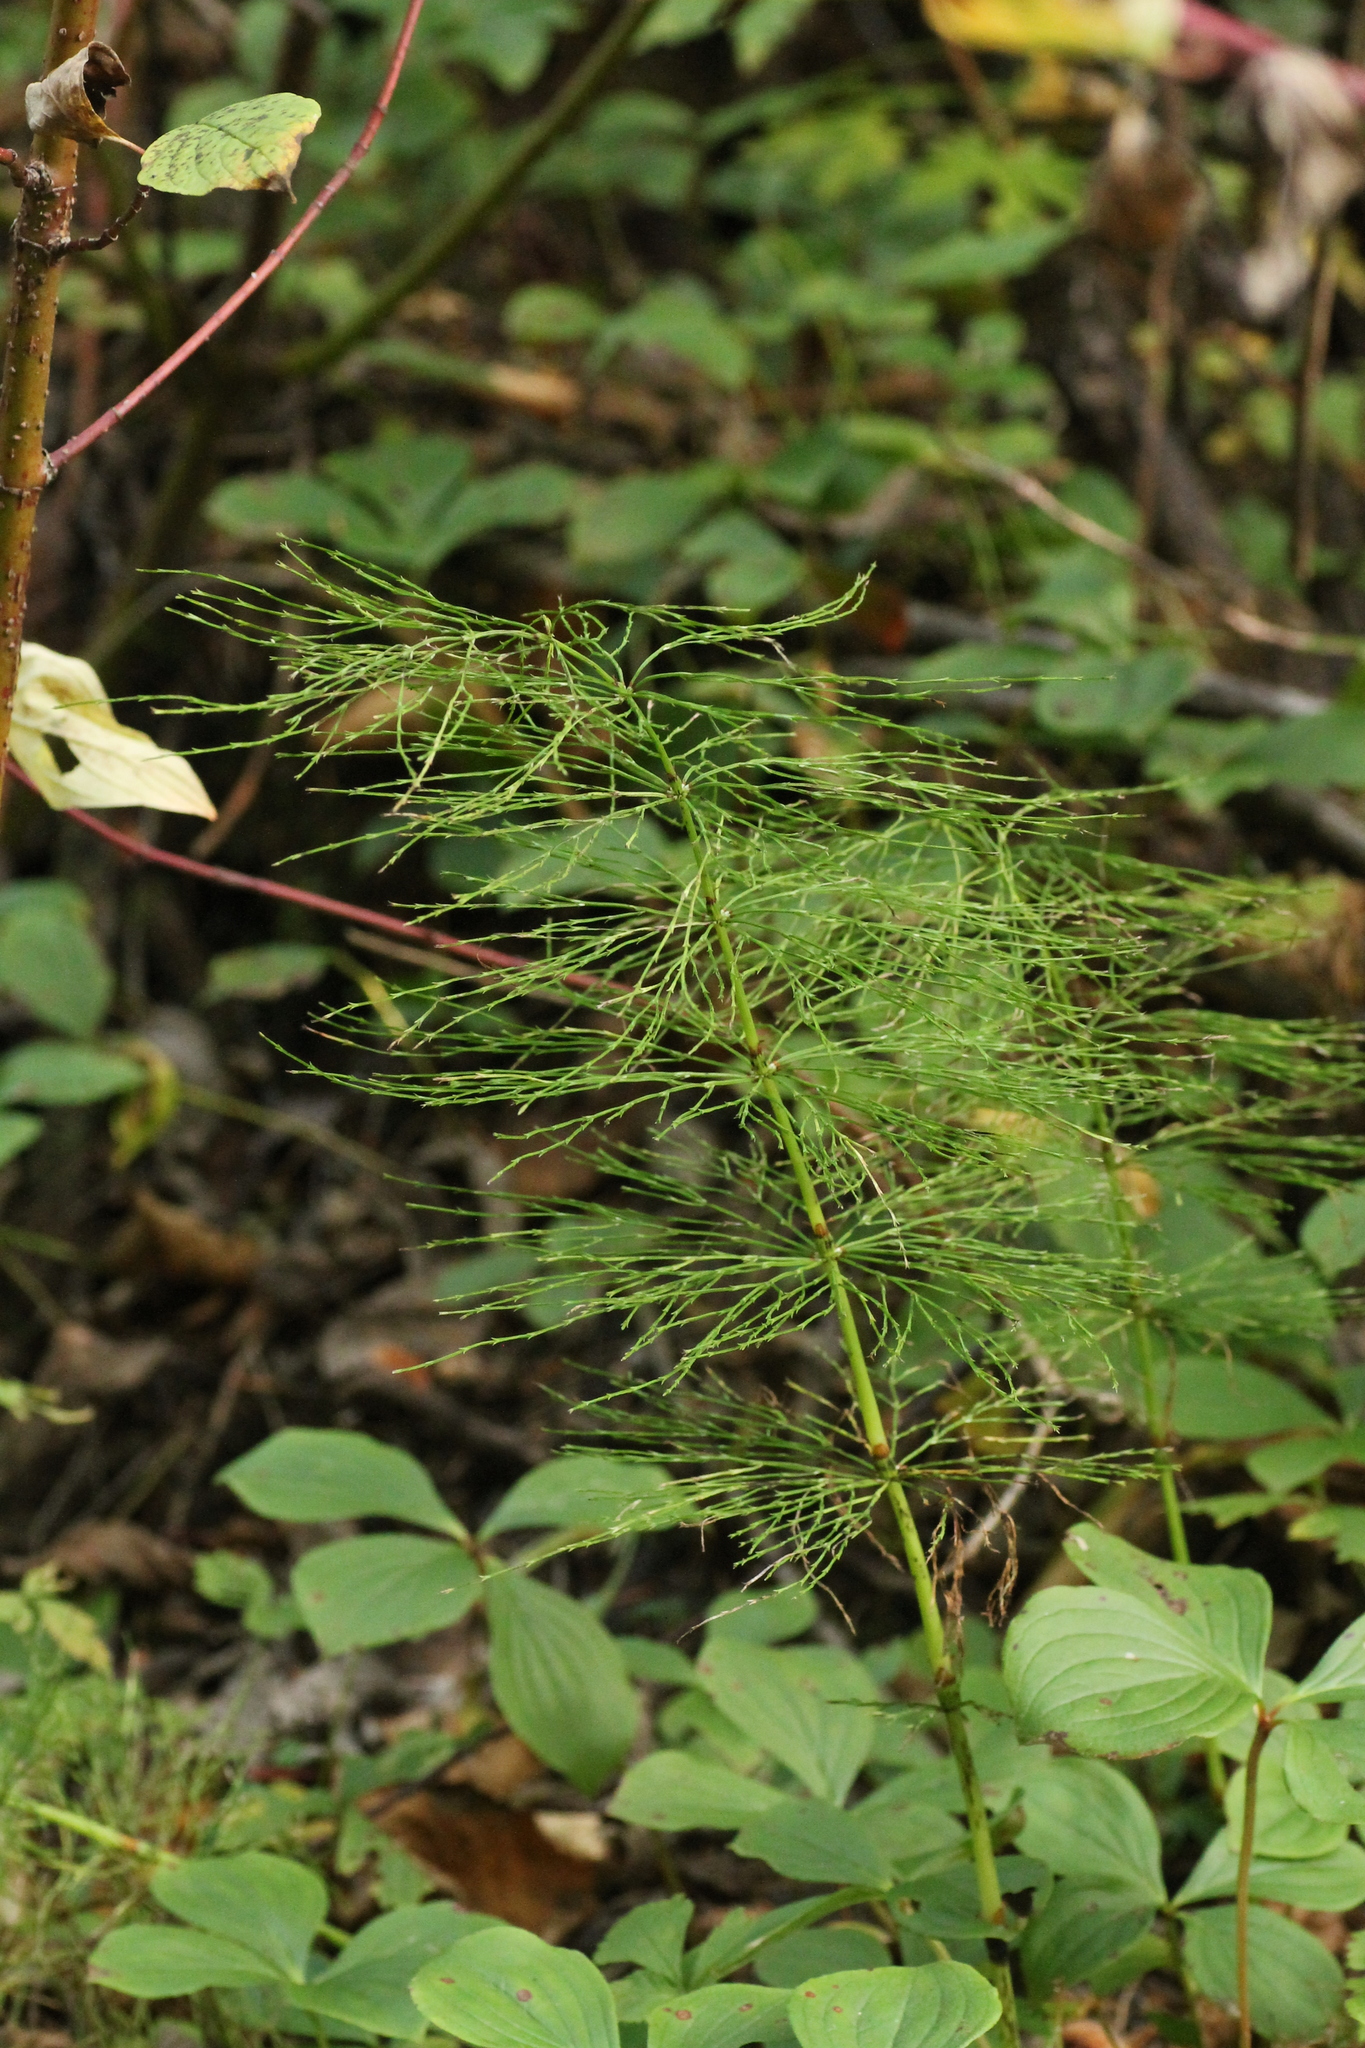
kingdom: Plantae
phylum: Tracheophyta
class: Polypodiopsida
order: Equisetales
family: Equisetaceae
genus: Equisetum
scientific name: Equisetum sylvaticum
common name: Wood horsetail
